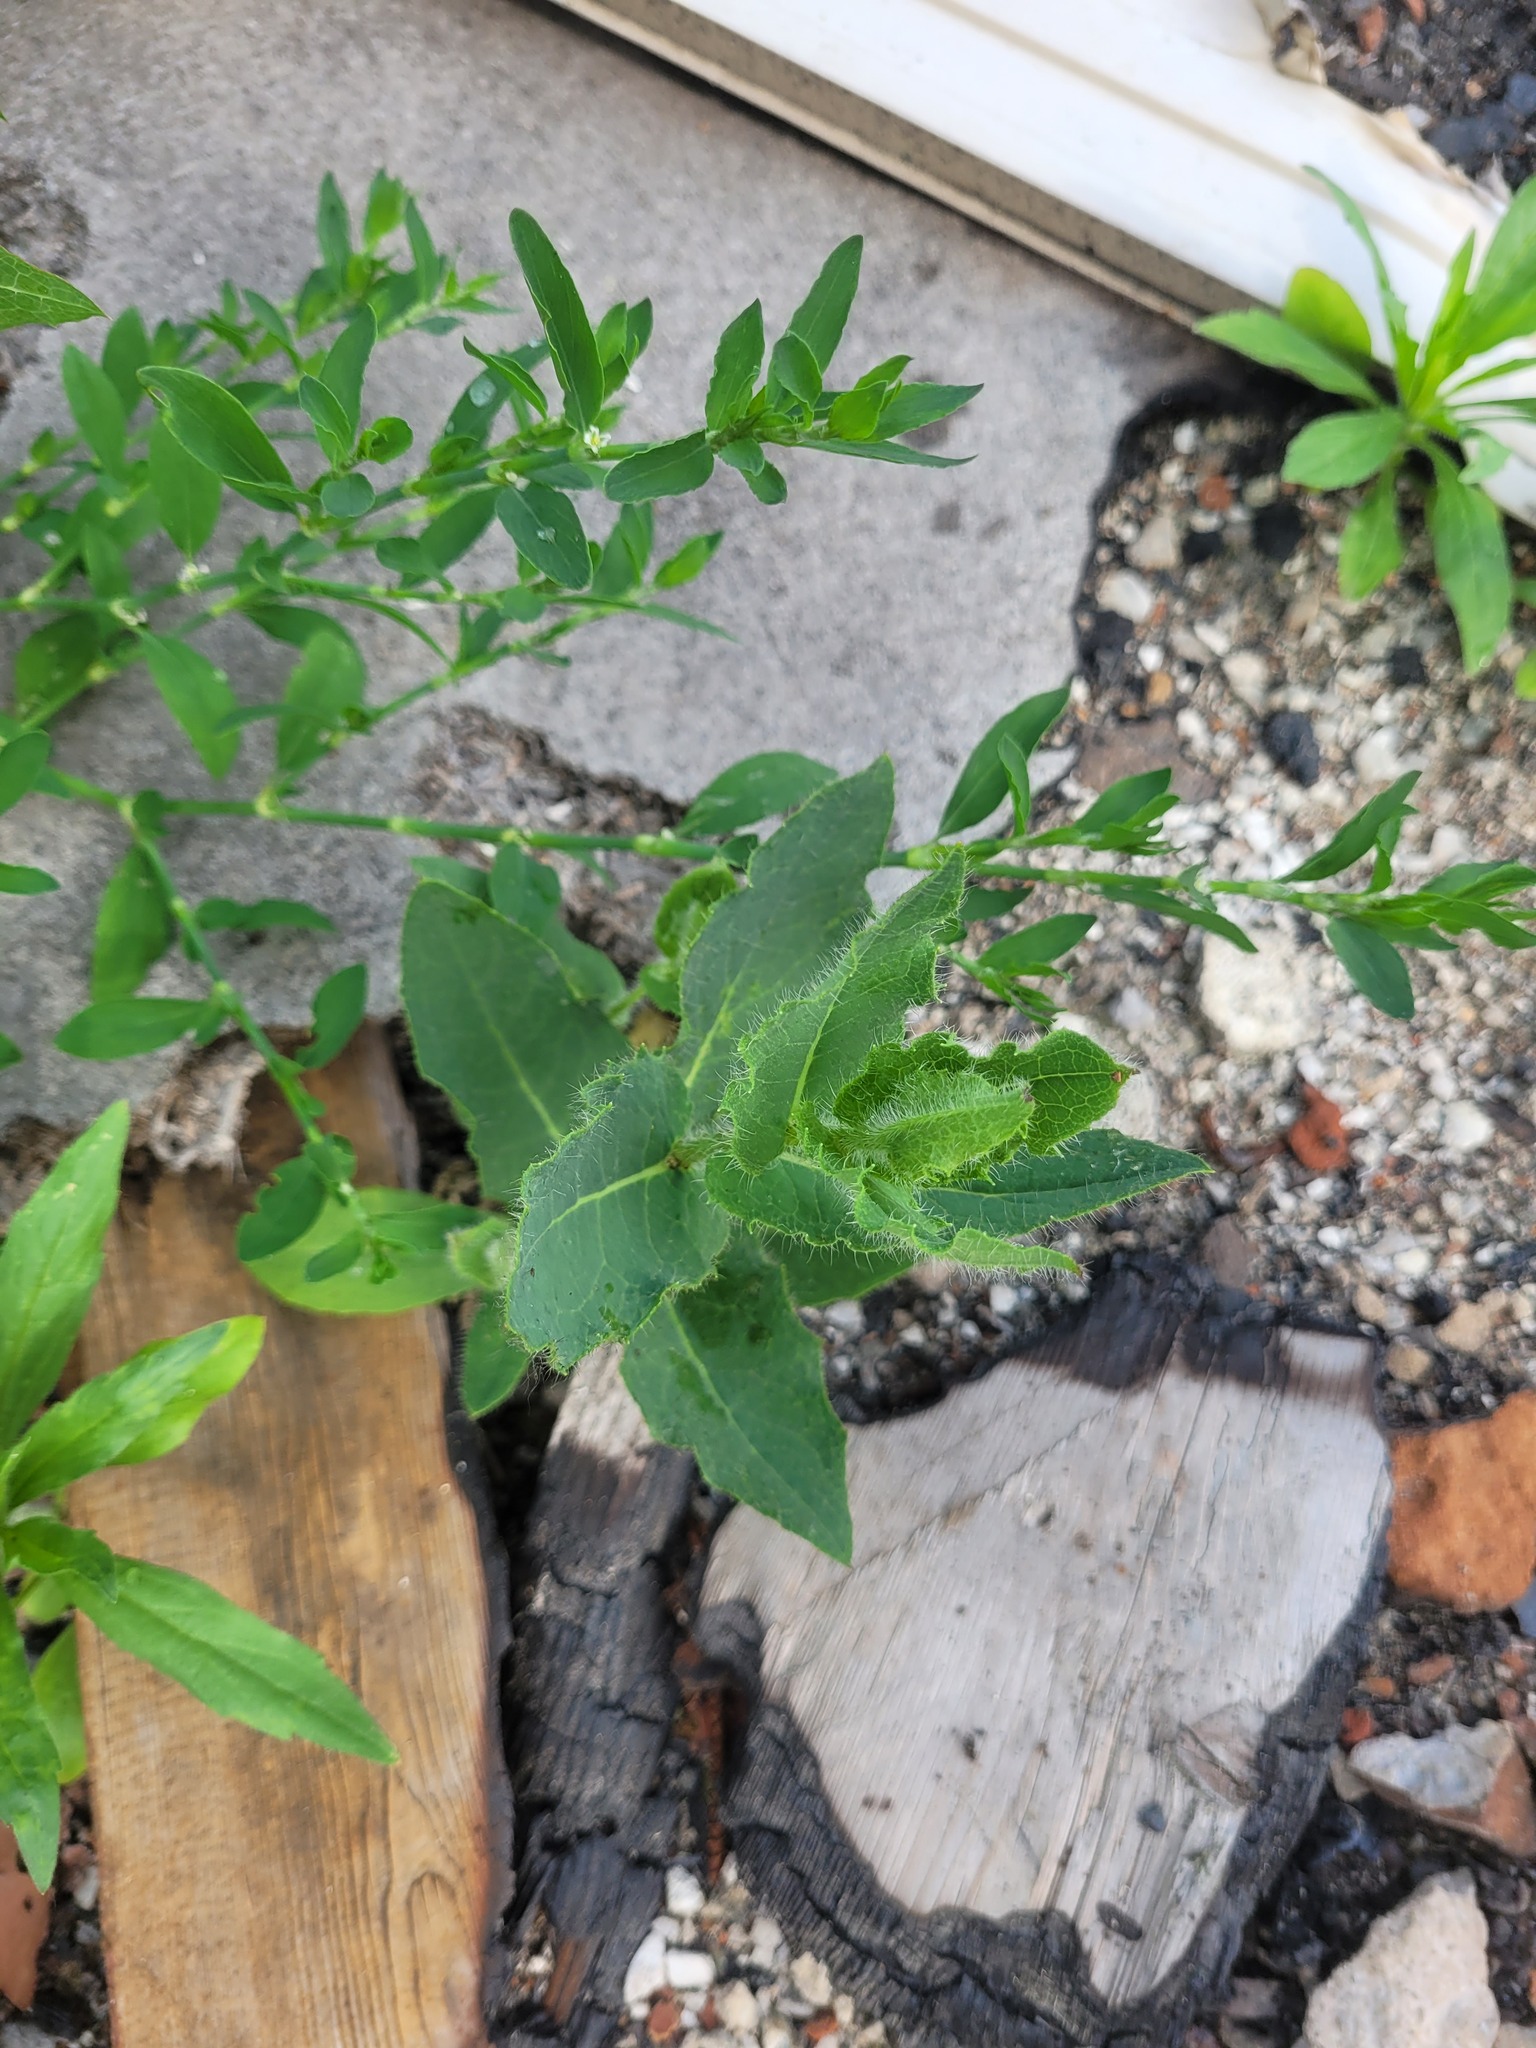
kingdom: Plantae
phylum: Tracheophyta
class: Magnoliopsida
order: Asterales
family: Asteraceae
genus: Hieracium
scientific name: Hieracium virosum
